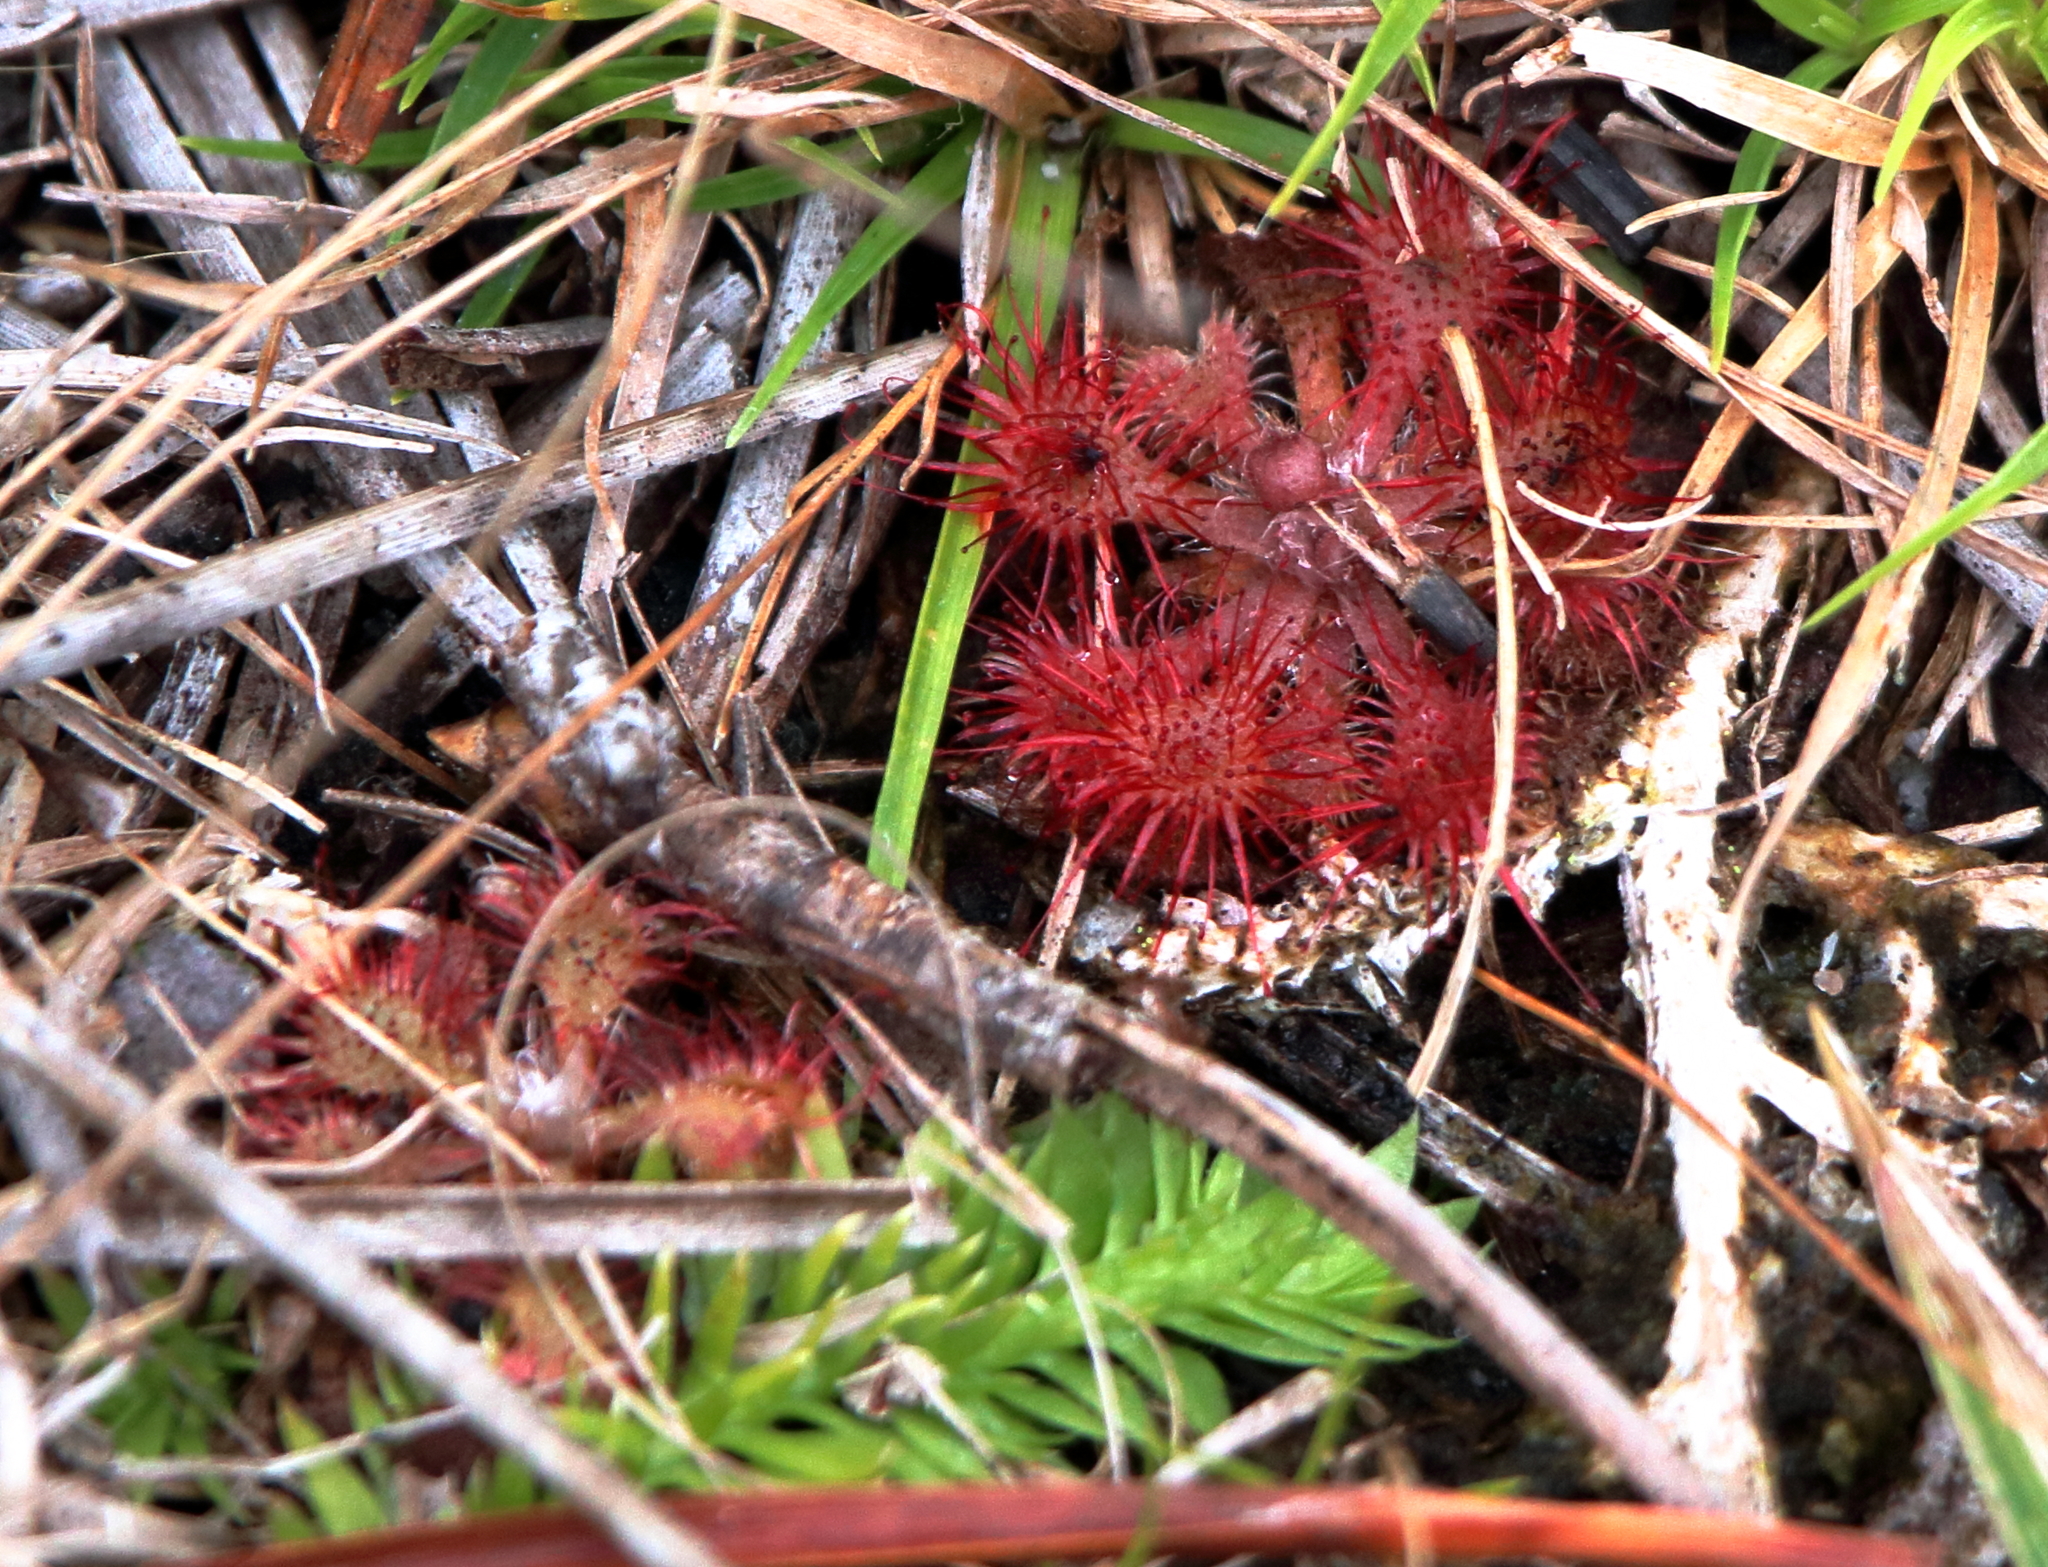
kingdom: Plantae
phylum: Tracheophyta
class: Magnoliopsida
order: Caryophyllales
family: Droseraceae
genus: Drosera
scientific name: Drosera brevifolia
